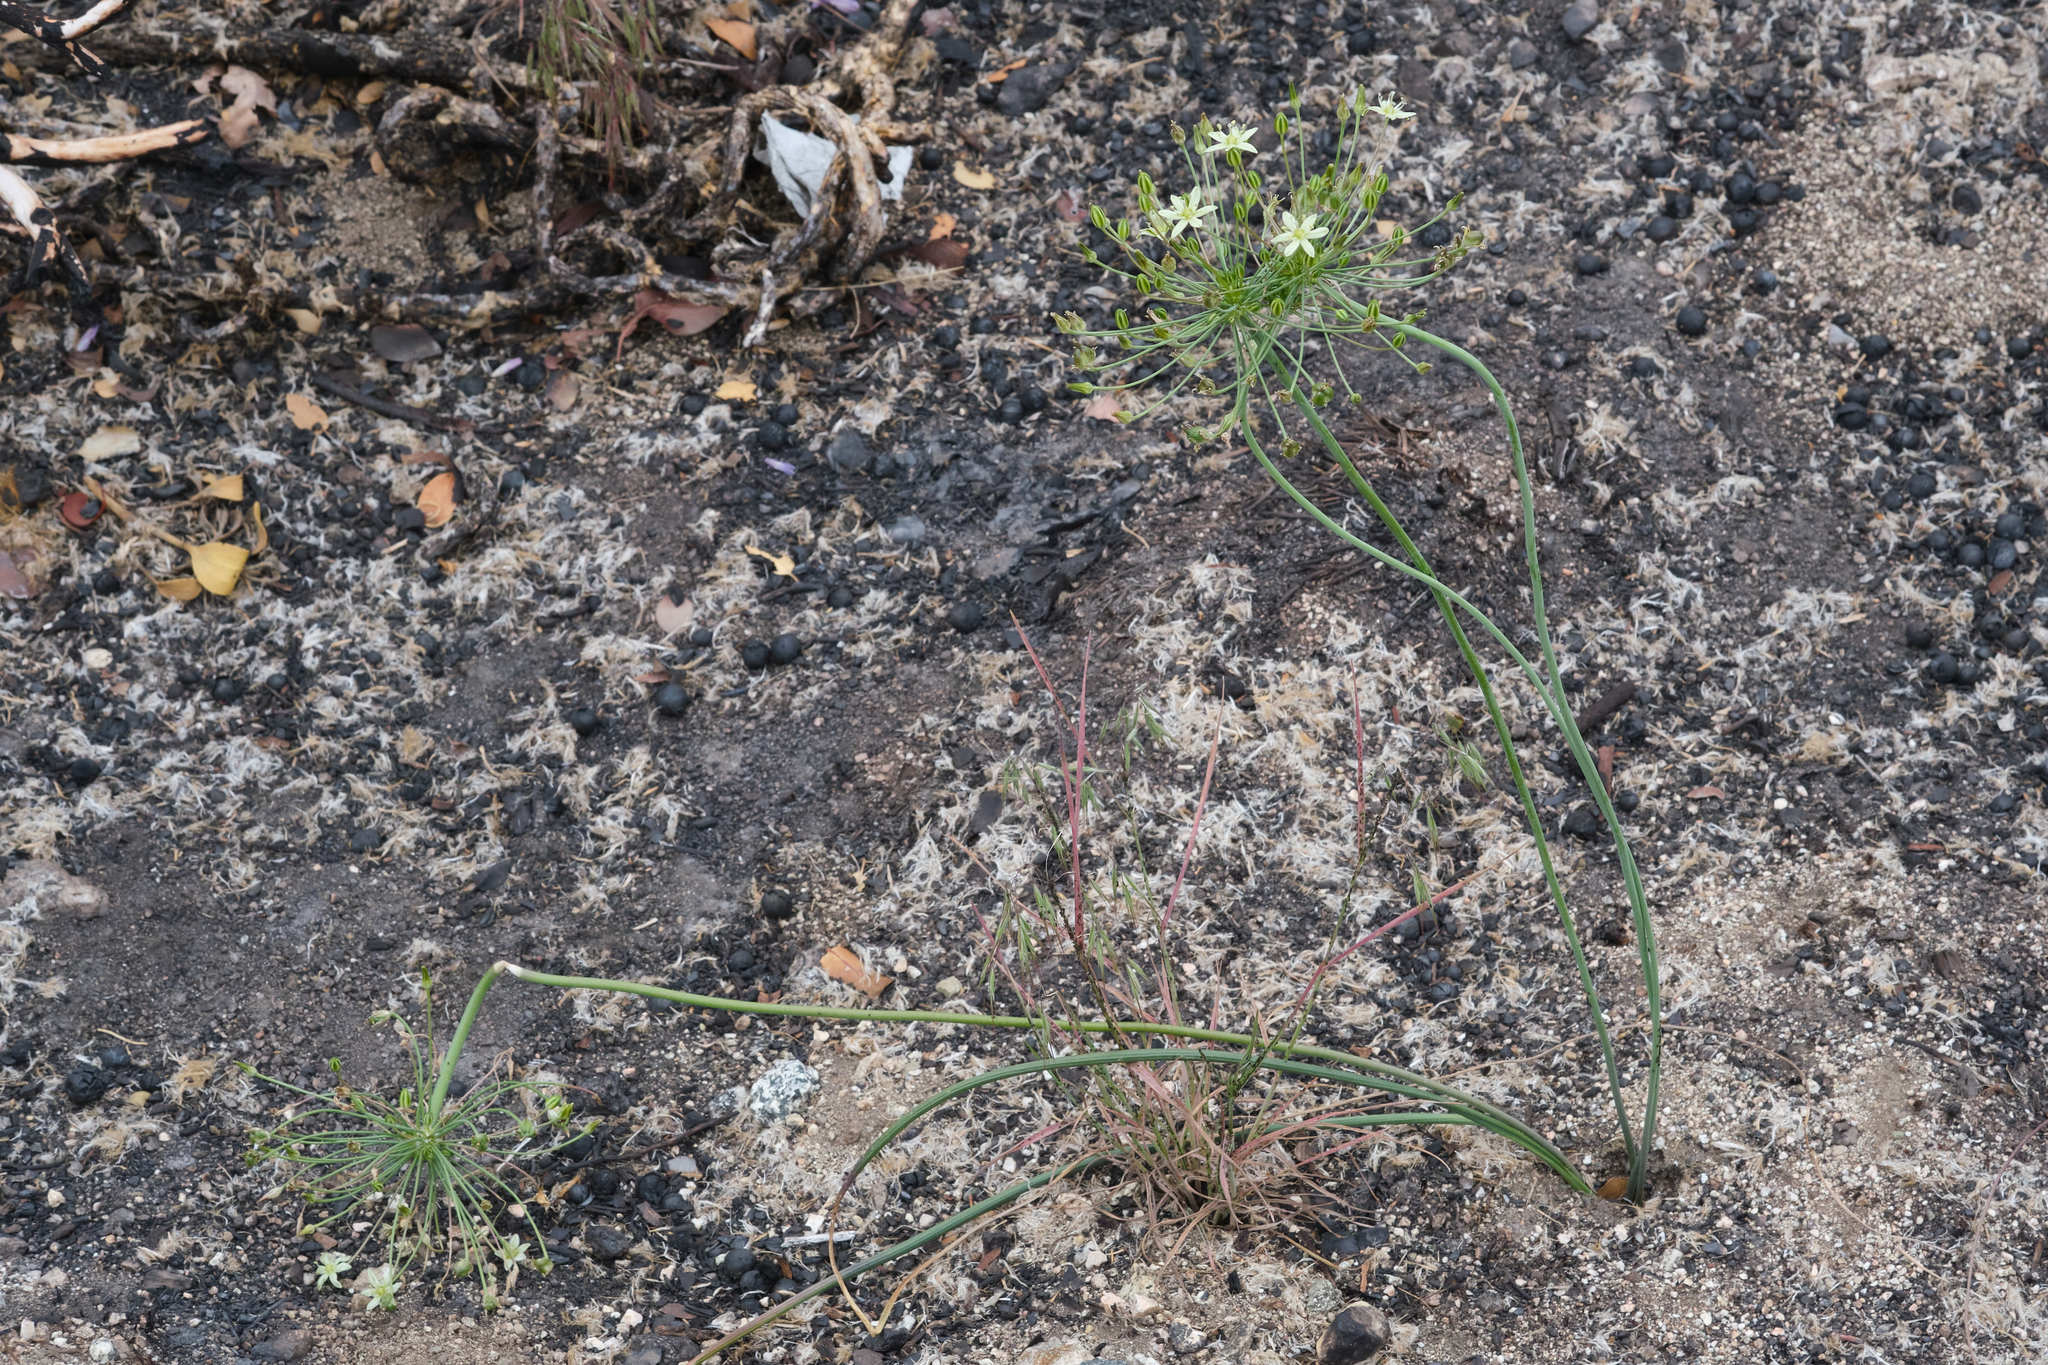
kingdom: Plantae
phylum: Tracheophyta
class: Liliopsida
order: Asparagales
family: Asparagaceae
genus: Muilla
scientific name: Muilla maritima
